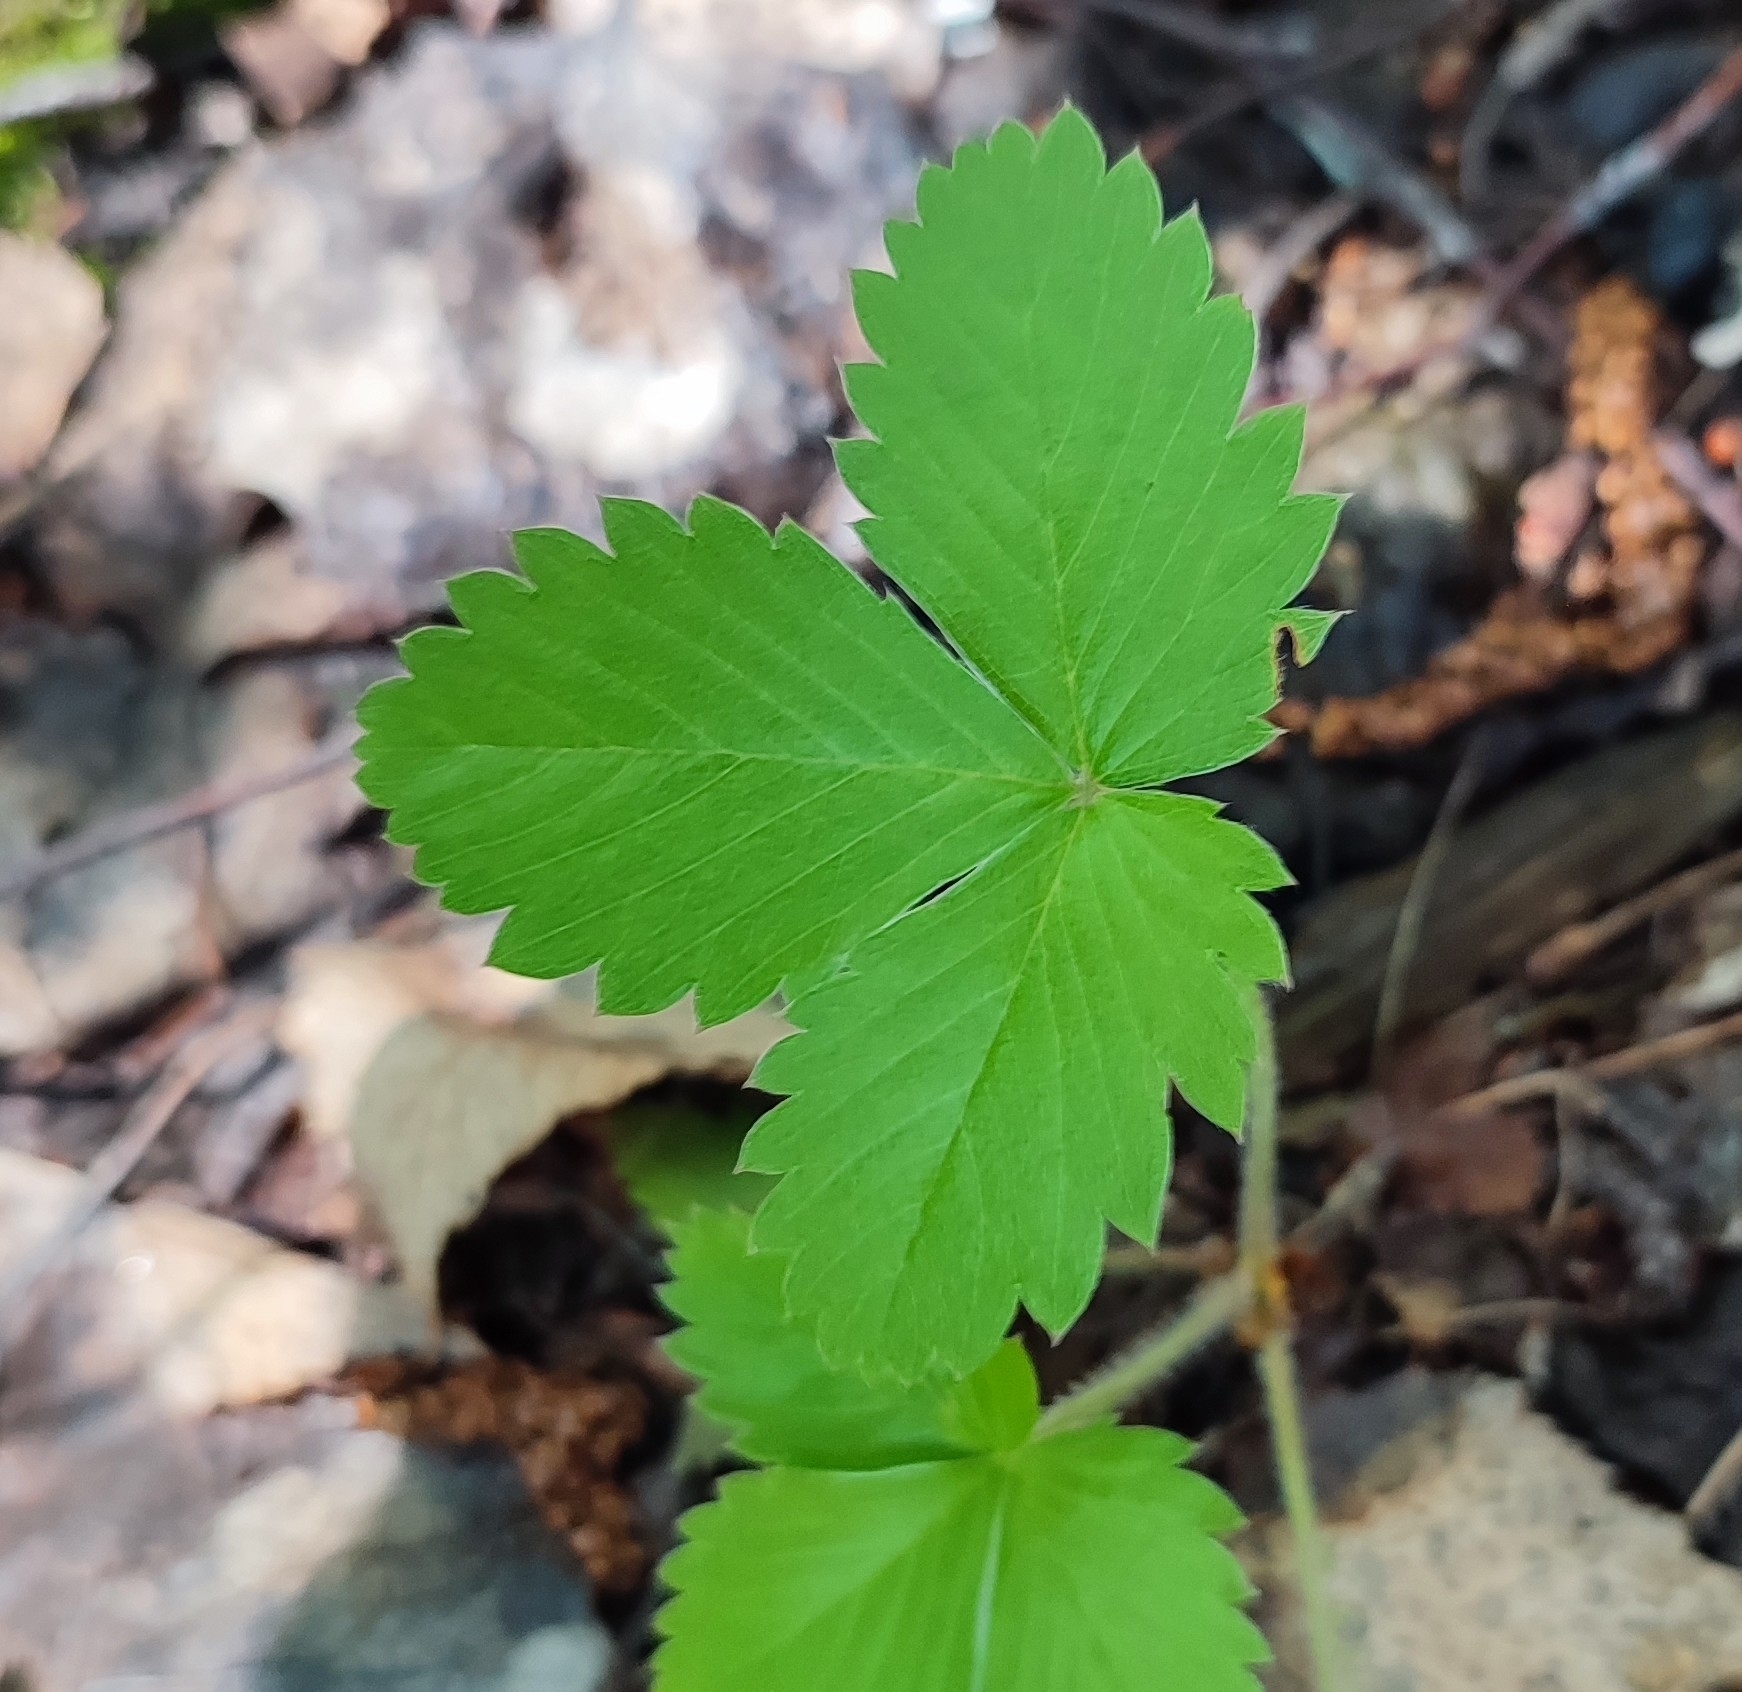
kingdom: Plantae
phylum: Tracheophyta
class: Magnoliopsida
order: Rosales
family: Rosaceae
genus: Fragaria
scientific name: Fragaria vesca
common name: Wild strawberry
